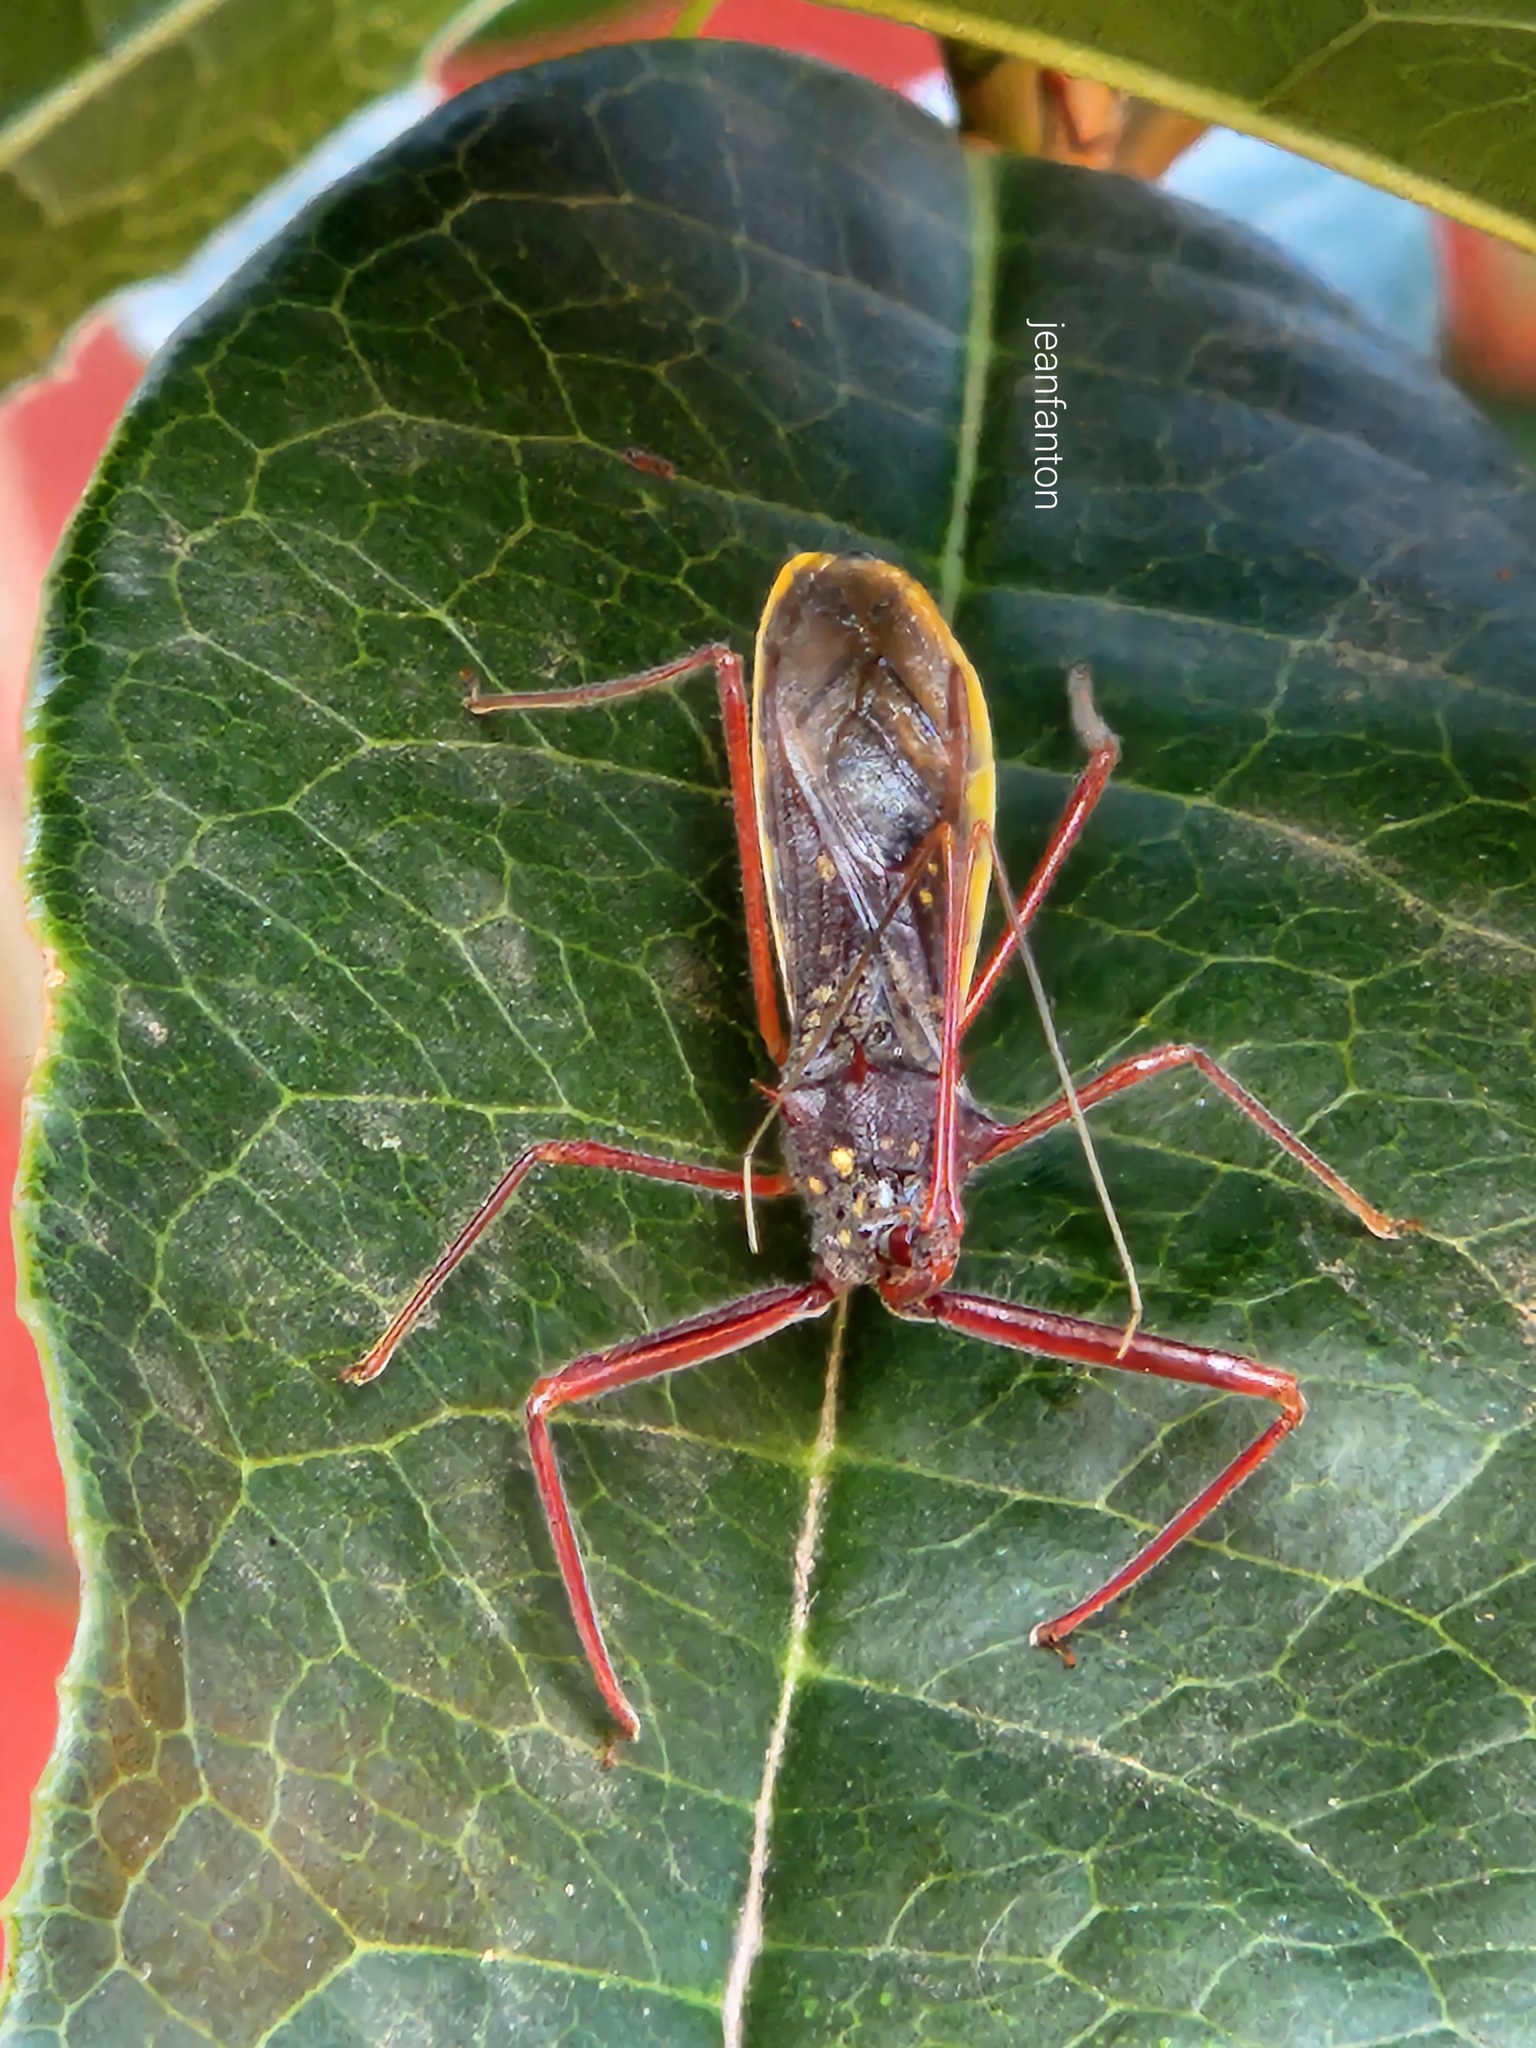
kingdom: Animalia
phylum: Arthropoda
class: Insecta
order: Hemiptera
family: Reduviidae
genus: Heza
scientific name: Heza binotata
